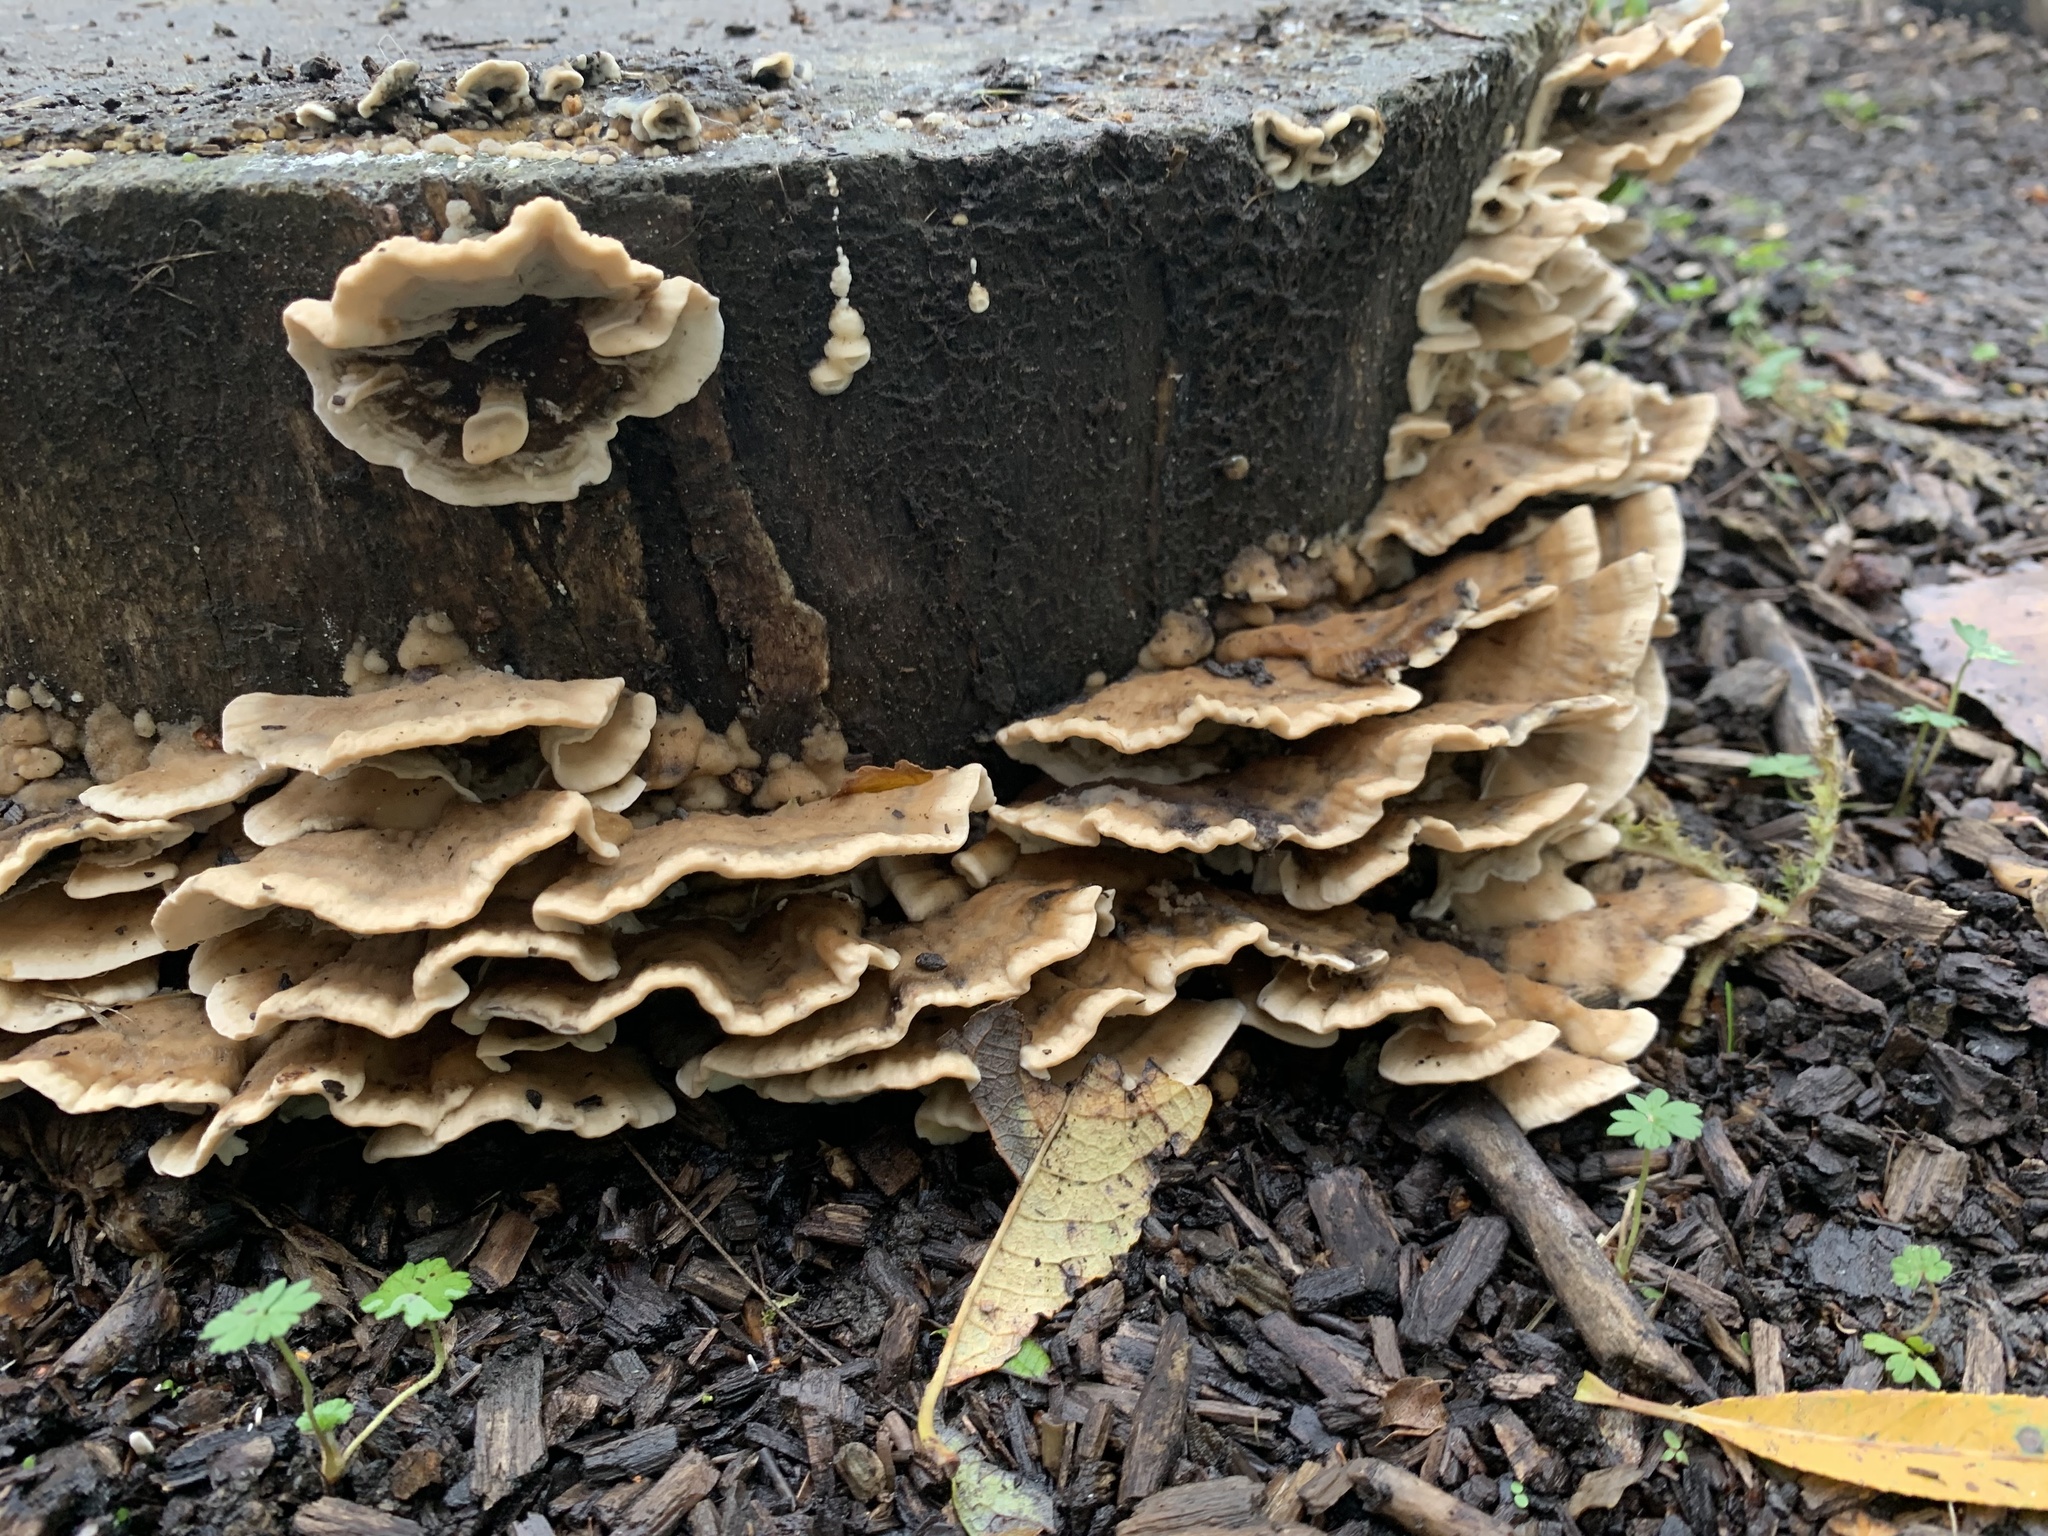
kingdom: Fungi
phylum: Basidiomycota
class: Agaricomycetes
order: Polyporales
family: Phanerochaetaceae
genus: Bjerkandera
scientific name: Bjerkandera adusta
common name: Smoky bracket
